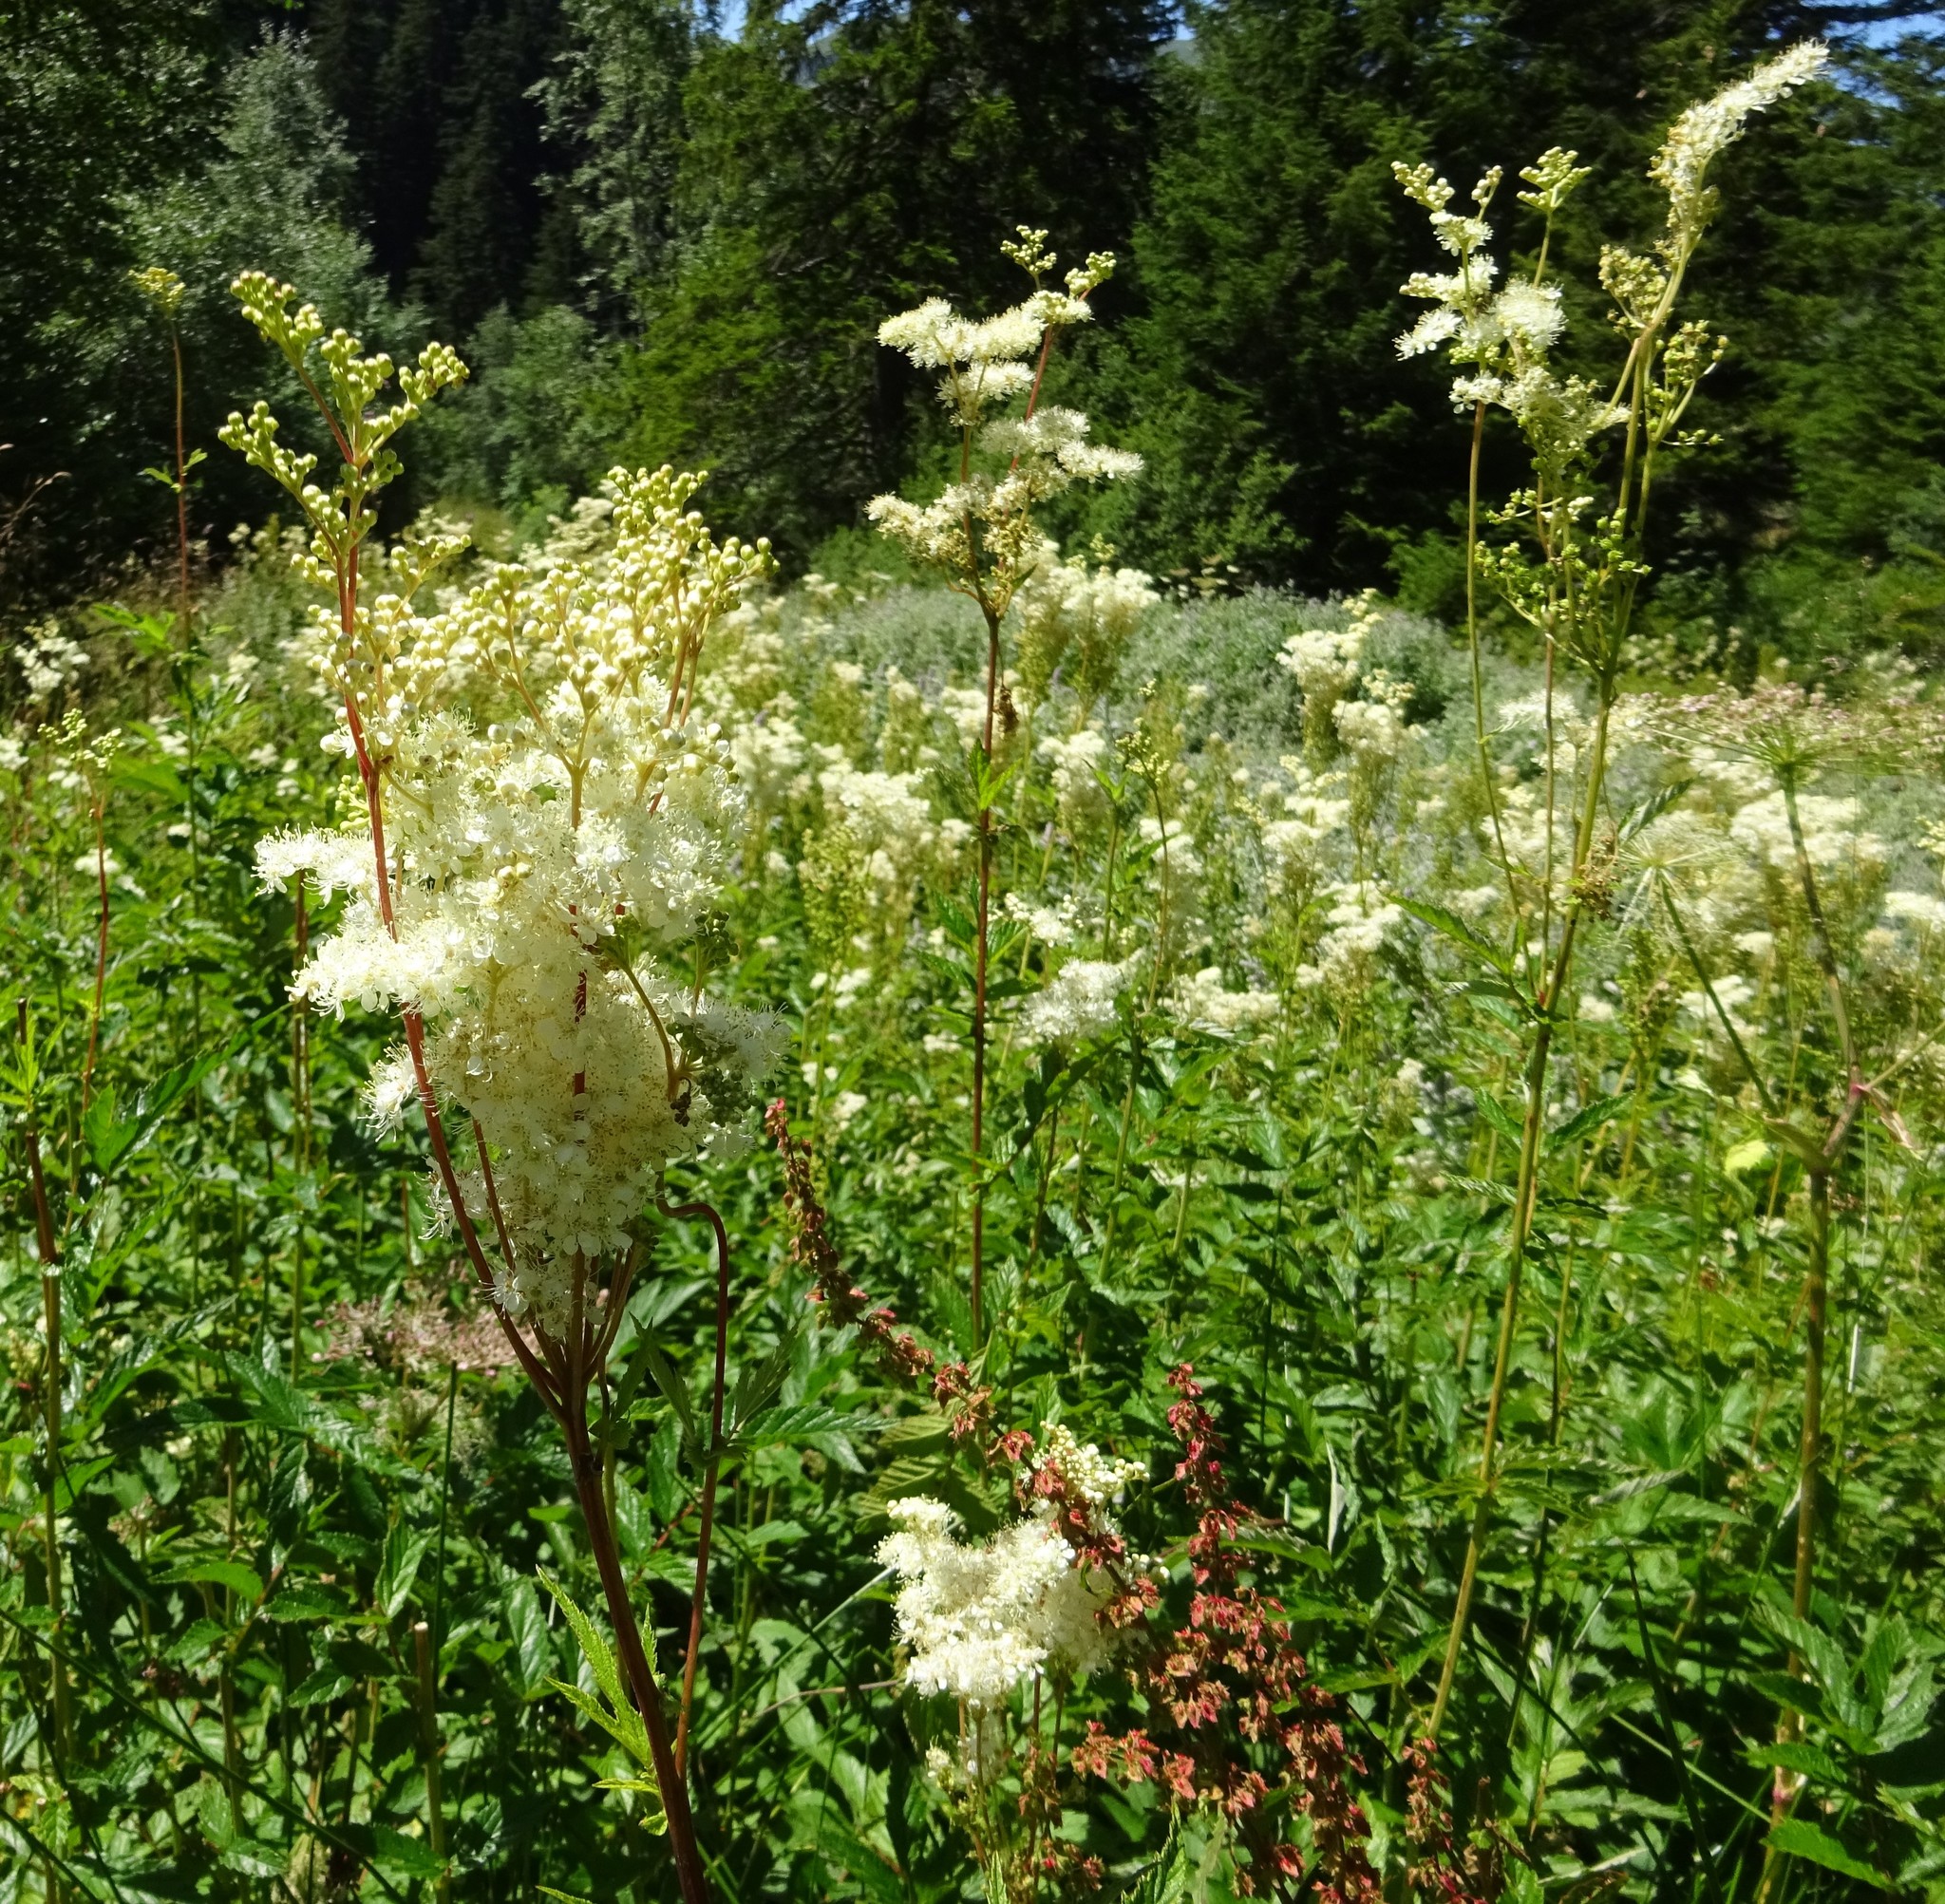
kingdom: Plantae
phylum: Tracheophyta
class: Magnoliopsida
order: Rosales
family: Rosaceae
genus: Filipendula
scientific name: Filipendula ulmaria
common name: Meadowsweet
